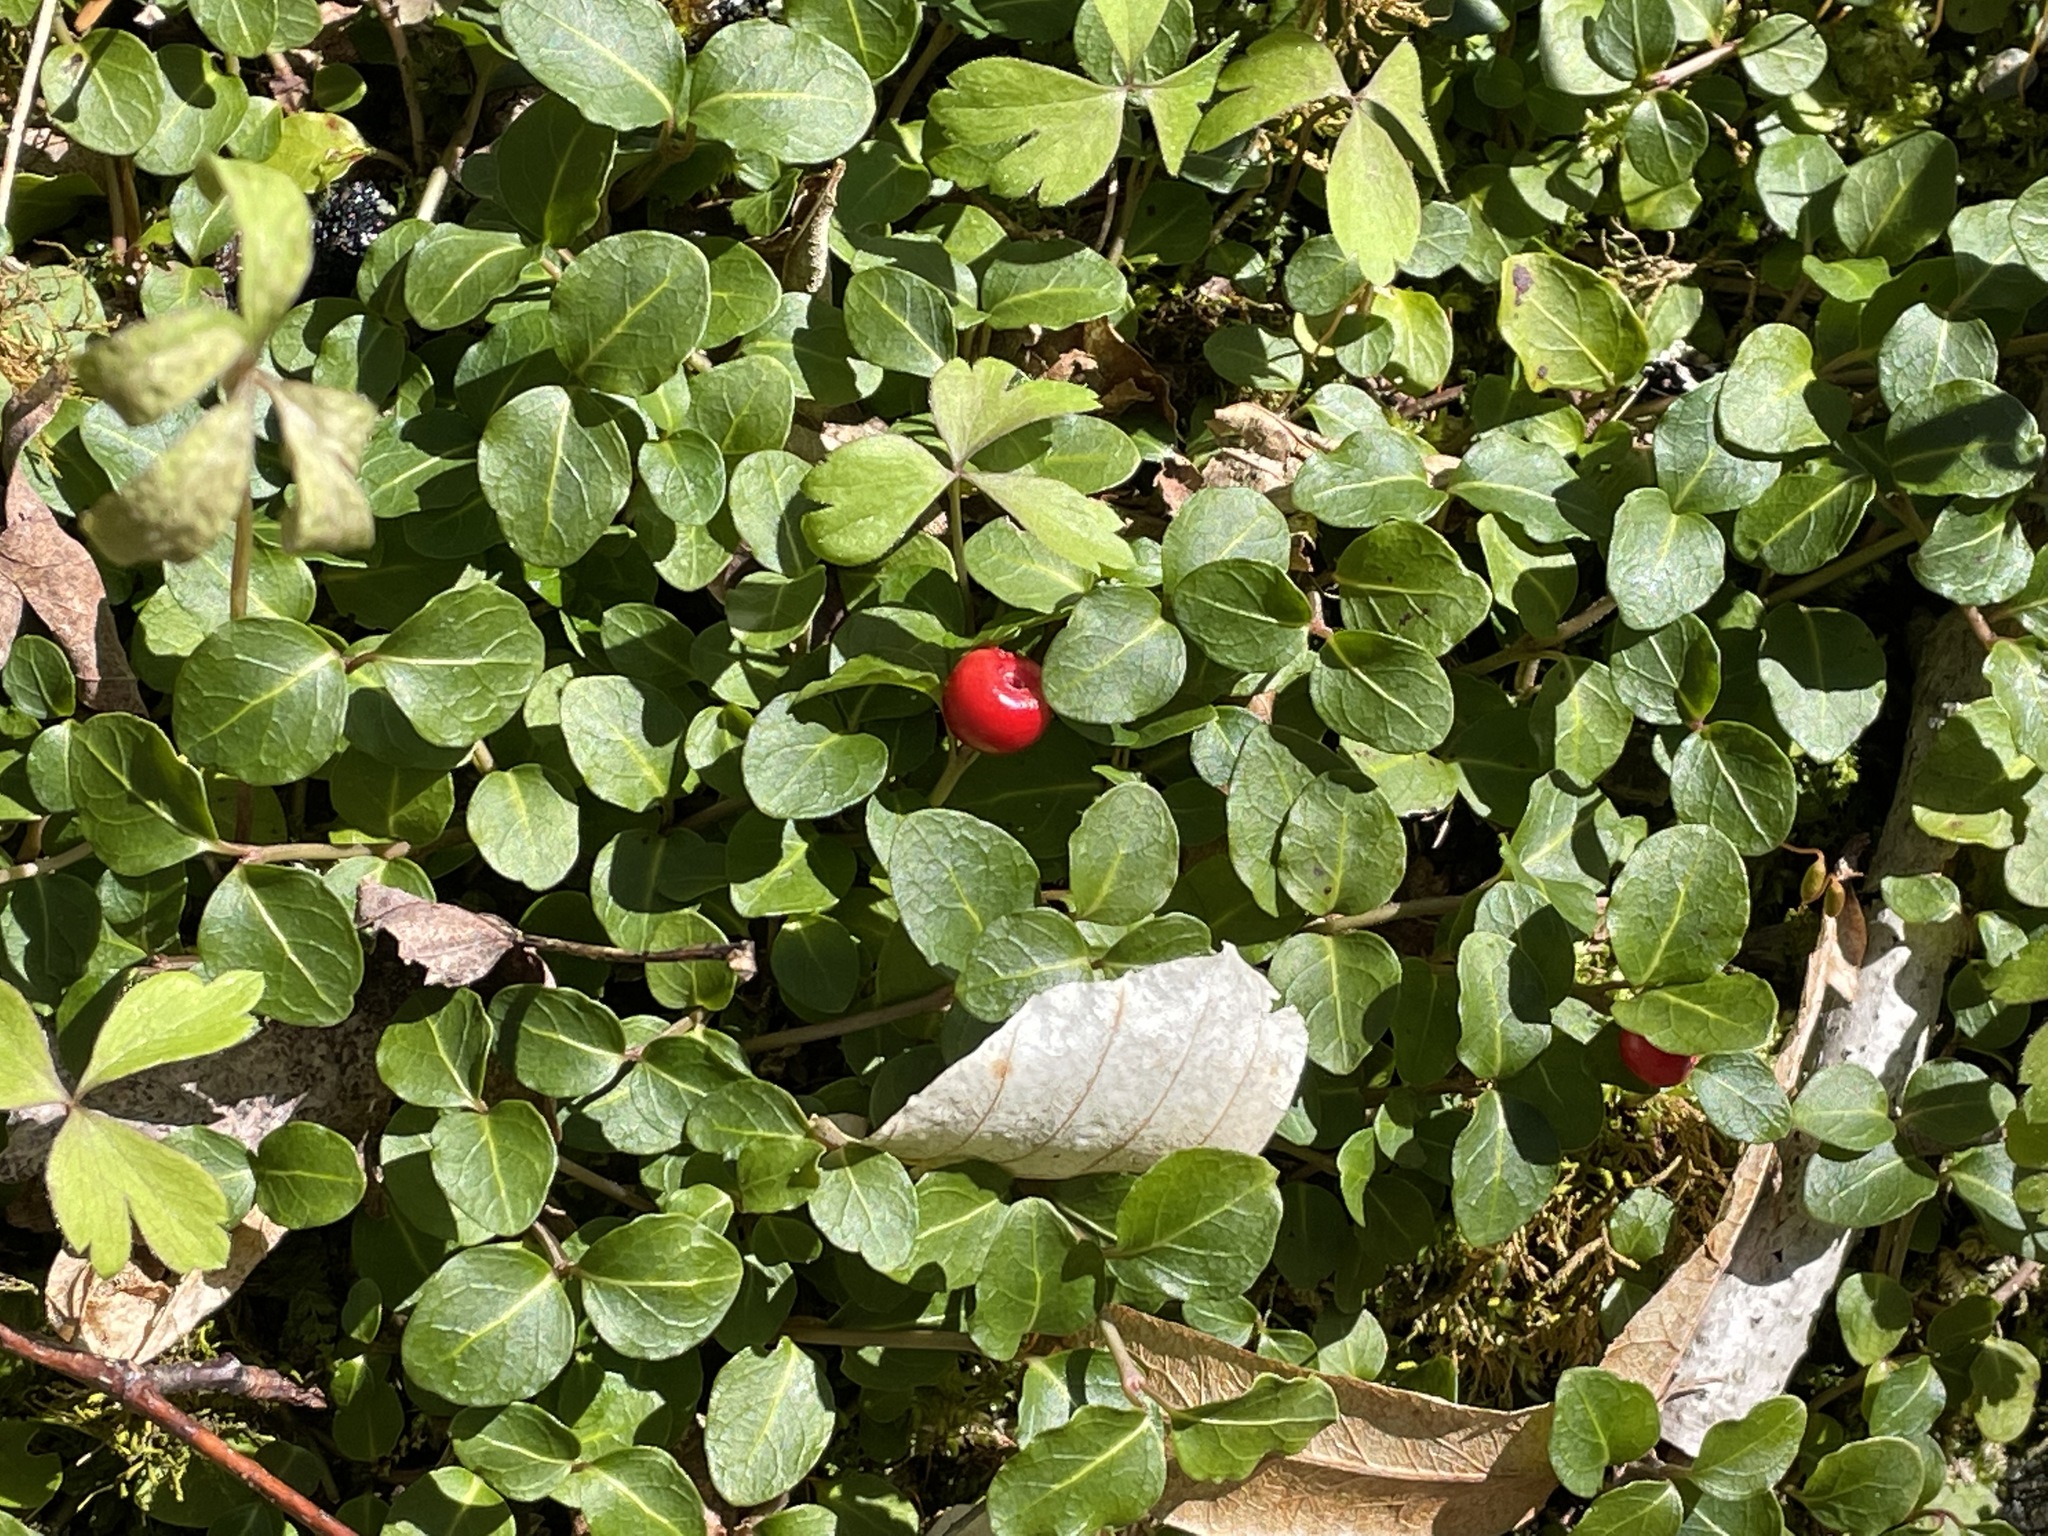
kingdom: Plantae
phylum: Tracheophyta
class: Magnoliopsida
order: Gentianales
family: Rubiaceae
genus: Mitchella
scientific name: Mitchella repens
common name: Partridge-berry
